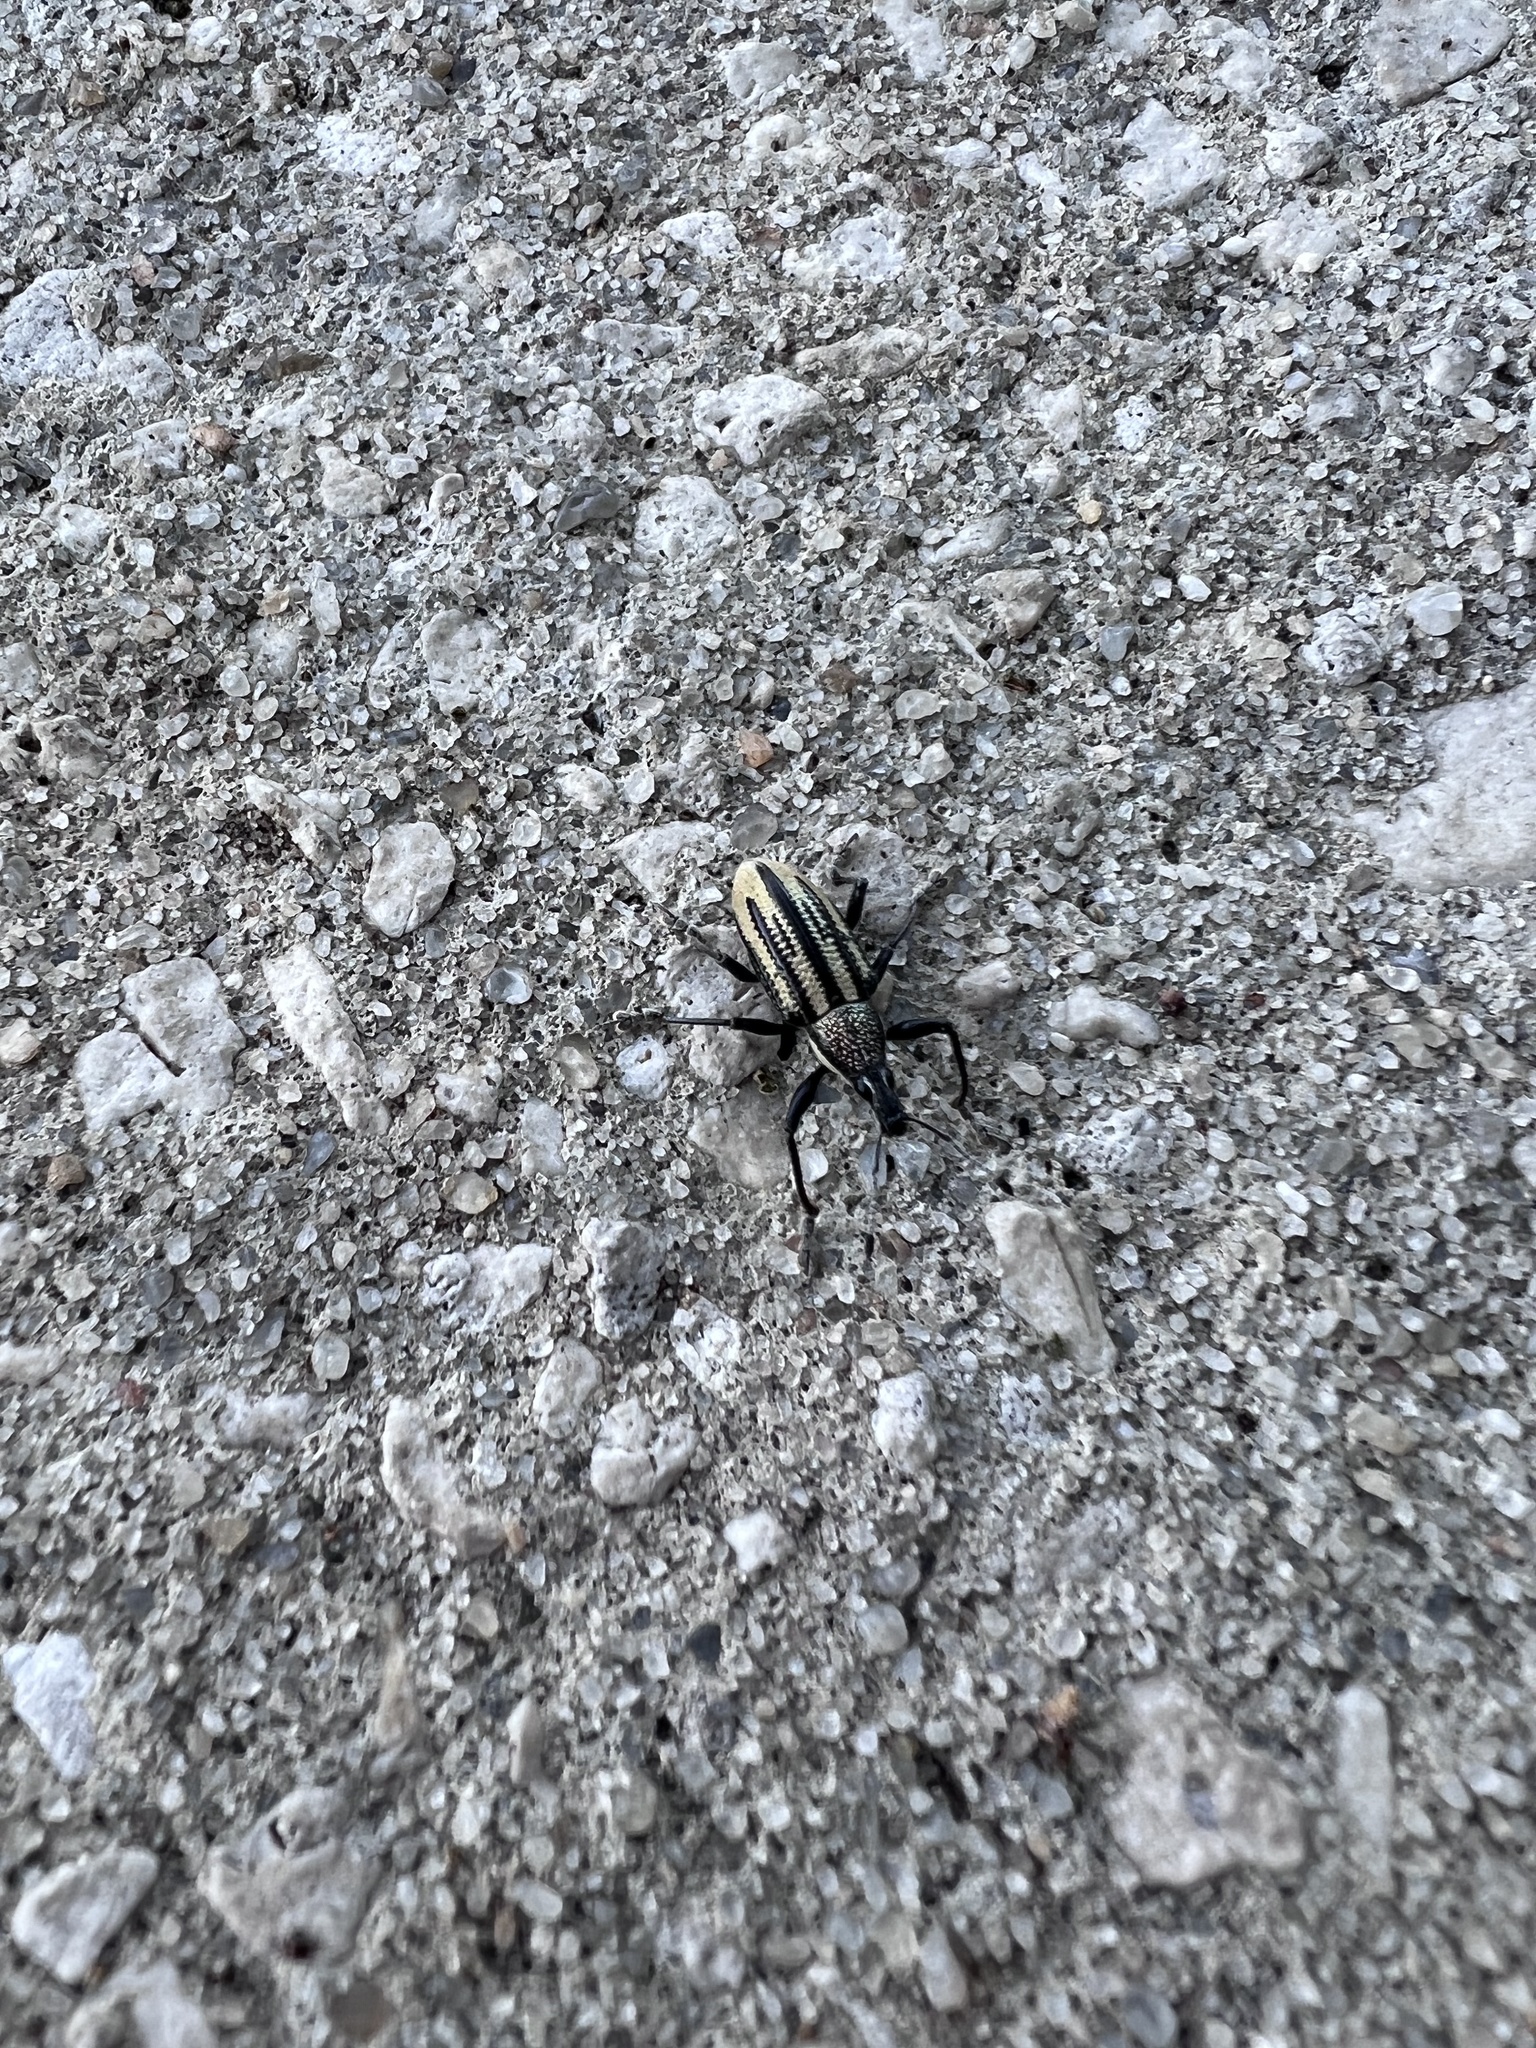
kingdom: Animalia
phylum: Arthropoda
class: Insecta
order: Coleoptera
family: Curculionidae
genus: Diaprepes
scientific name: Diaprepes abbreviatus
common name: Root weevil
